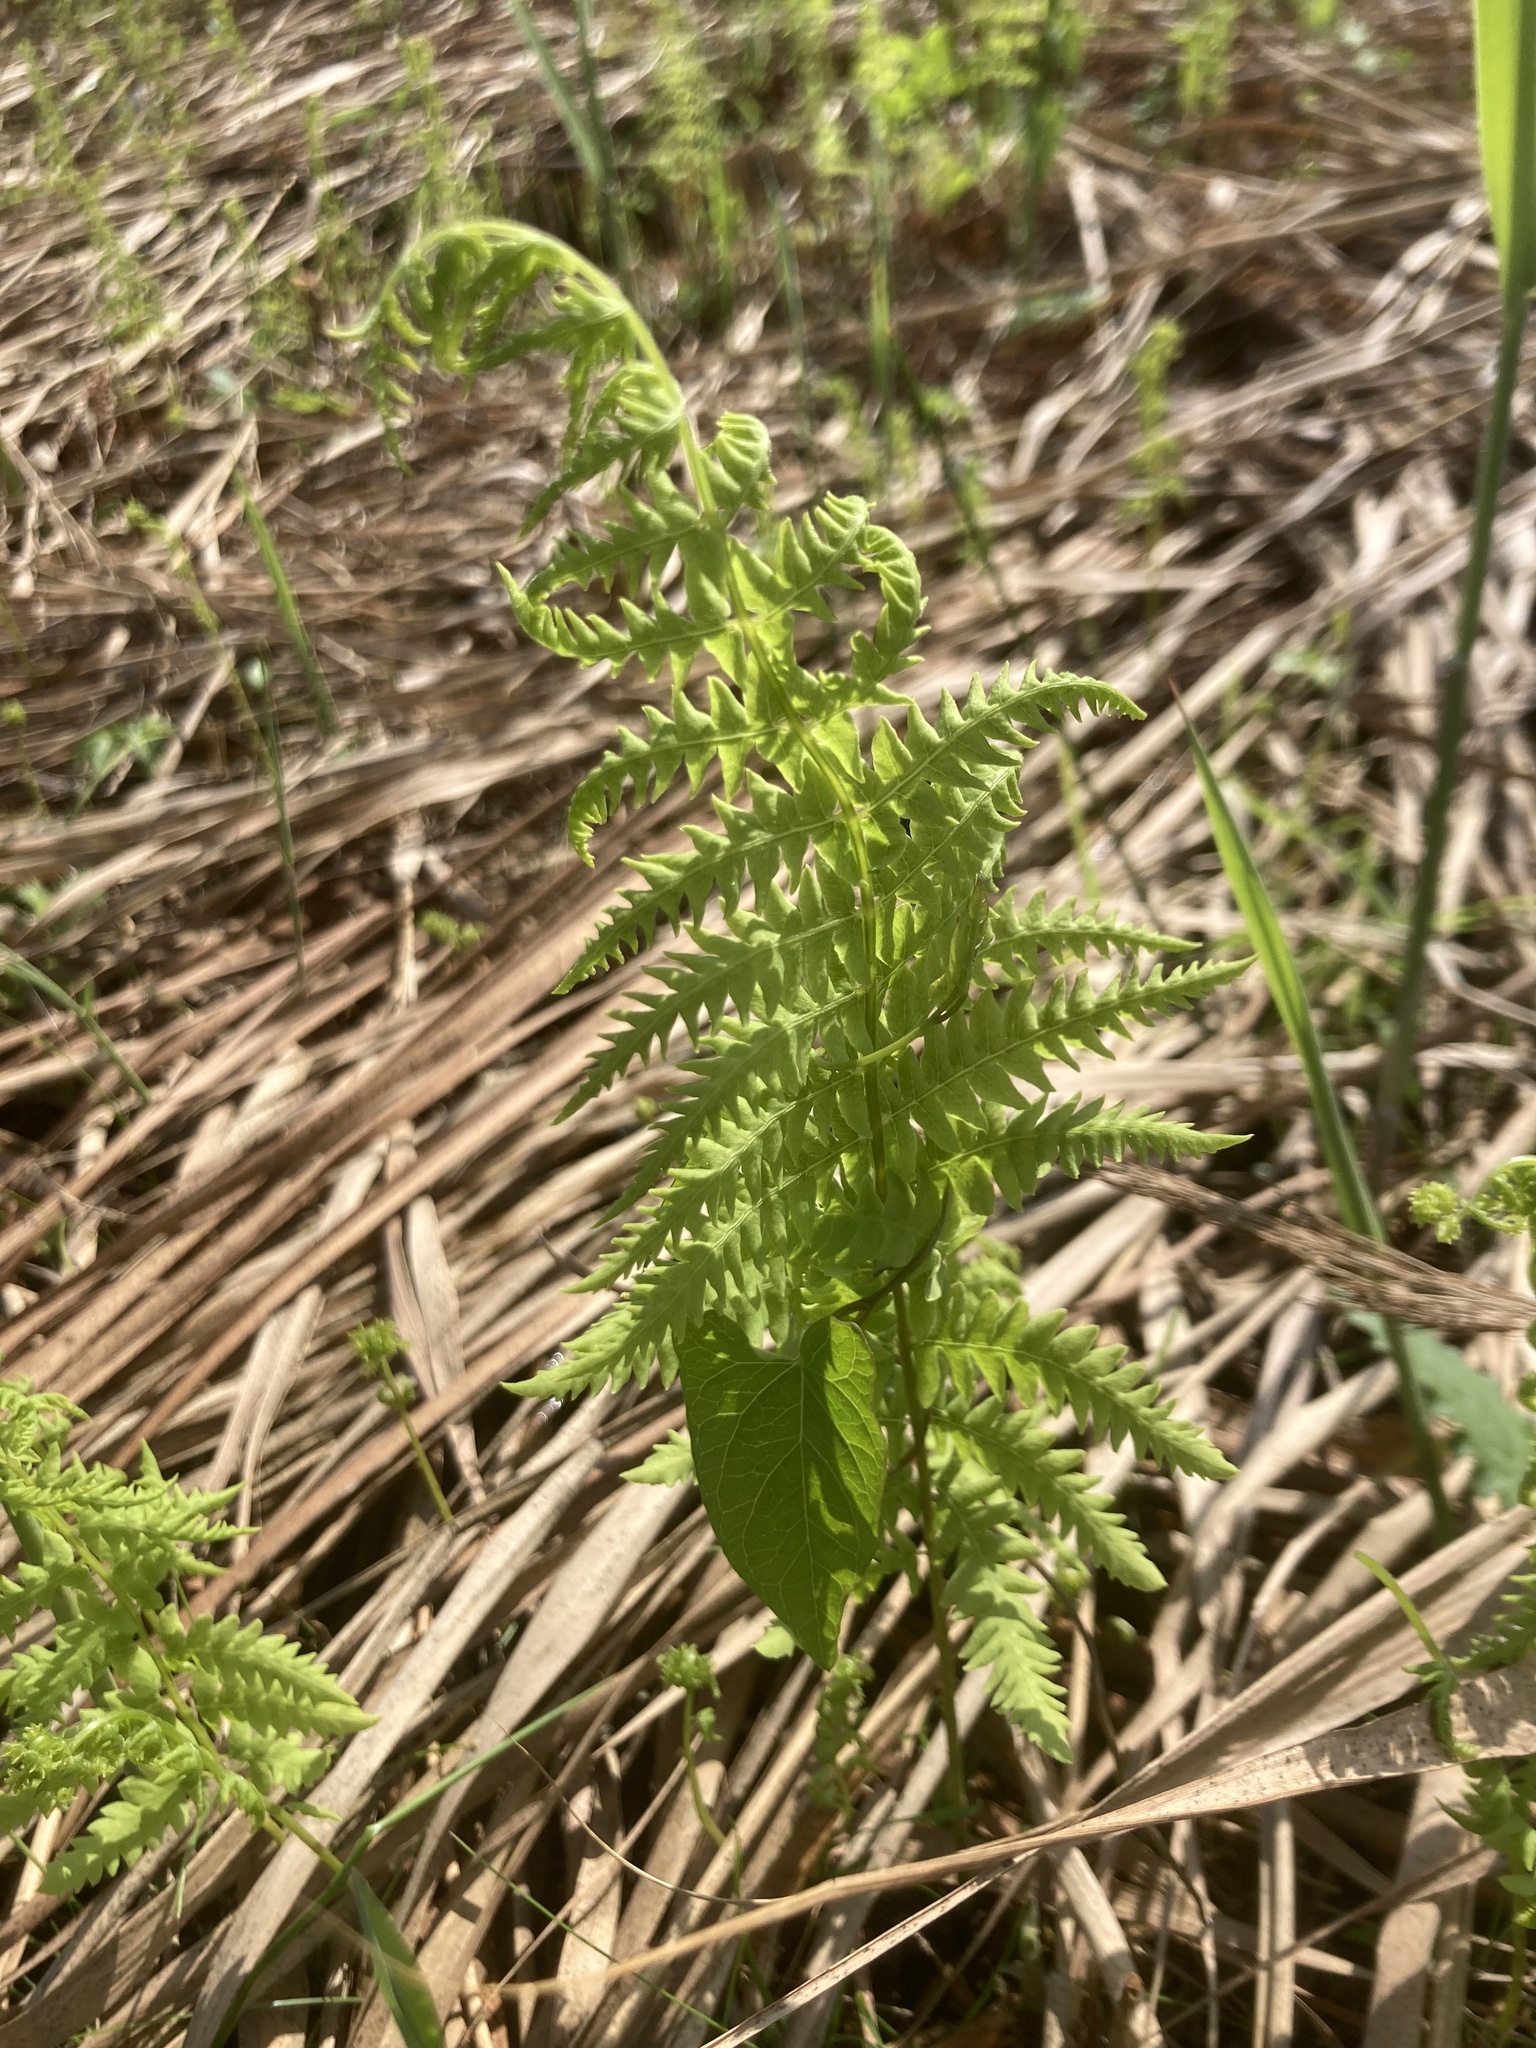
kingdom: Plantae
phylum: Tracheophyta
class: Polypodiopsida
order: Polypodiales
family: Thelypteridaceae
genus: Thelypteris
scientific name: Thelypteris palustris
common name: Marsh fern
